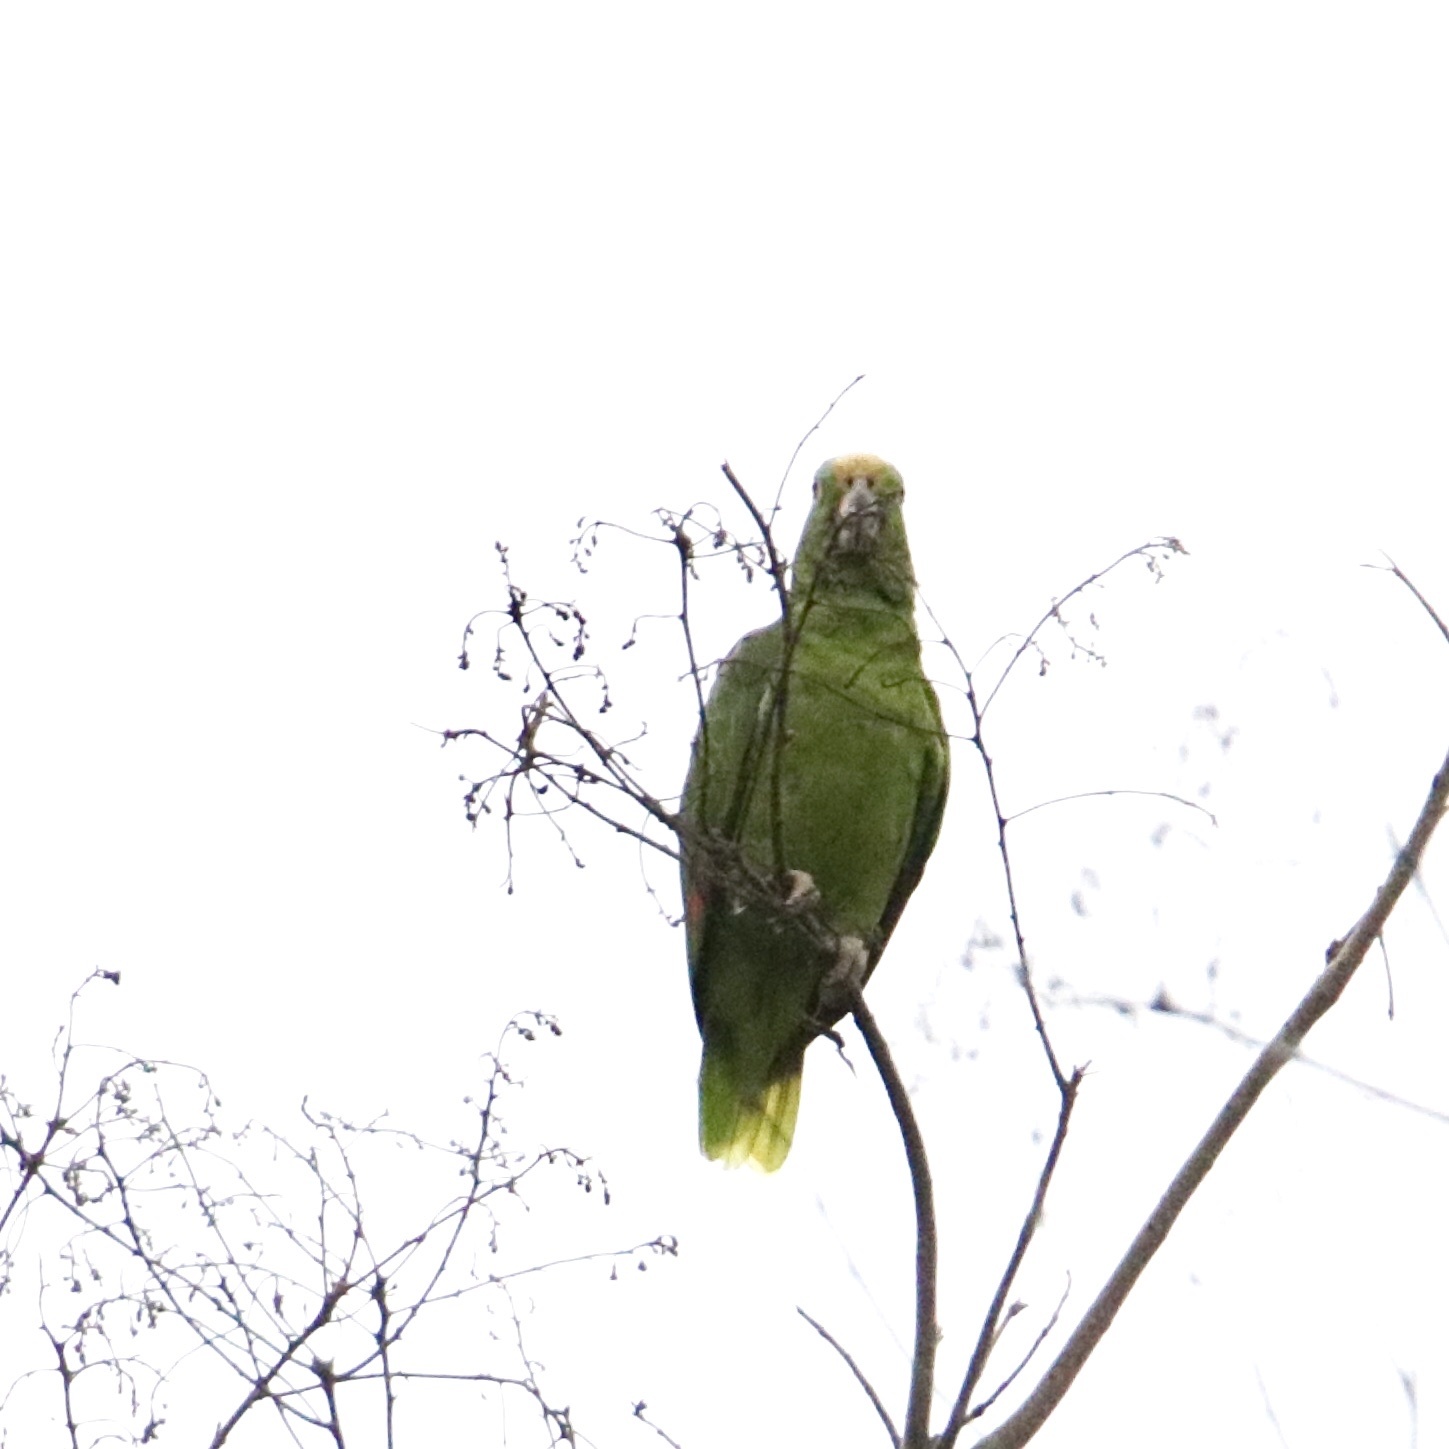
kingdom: Animalia
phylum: Chordata
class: Aves
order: Psittaciformes
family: Psittacidae
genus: Amazona
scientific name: Amazona ochrocephala
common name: Yellow-crowned amazon
